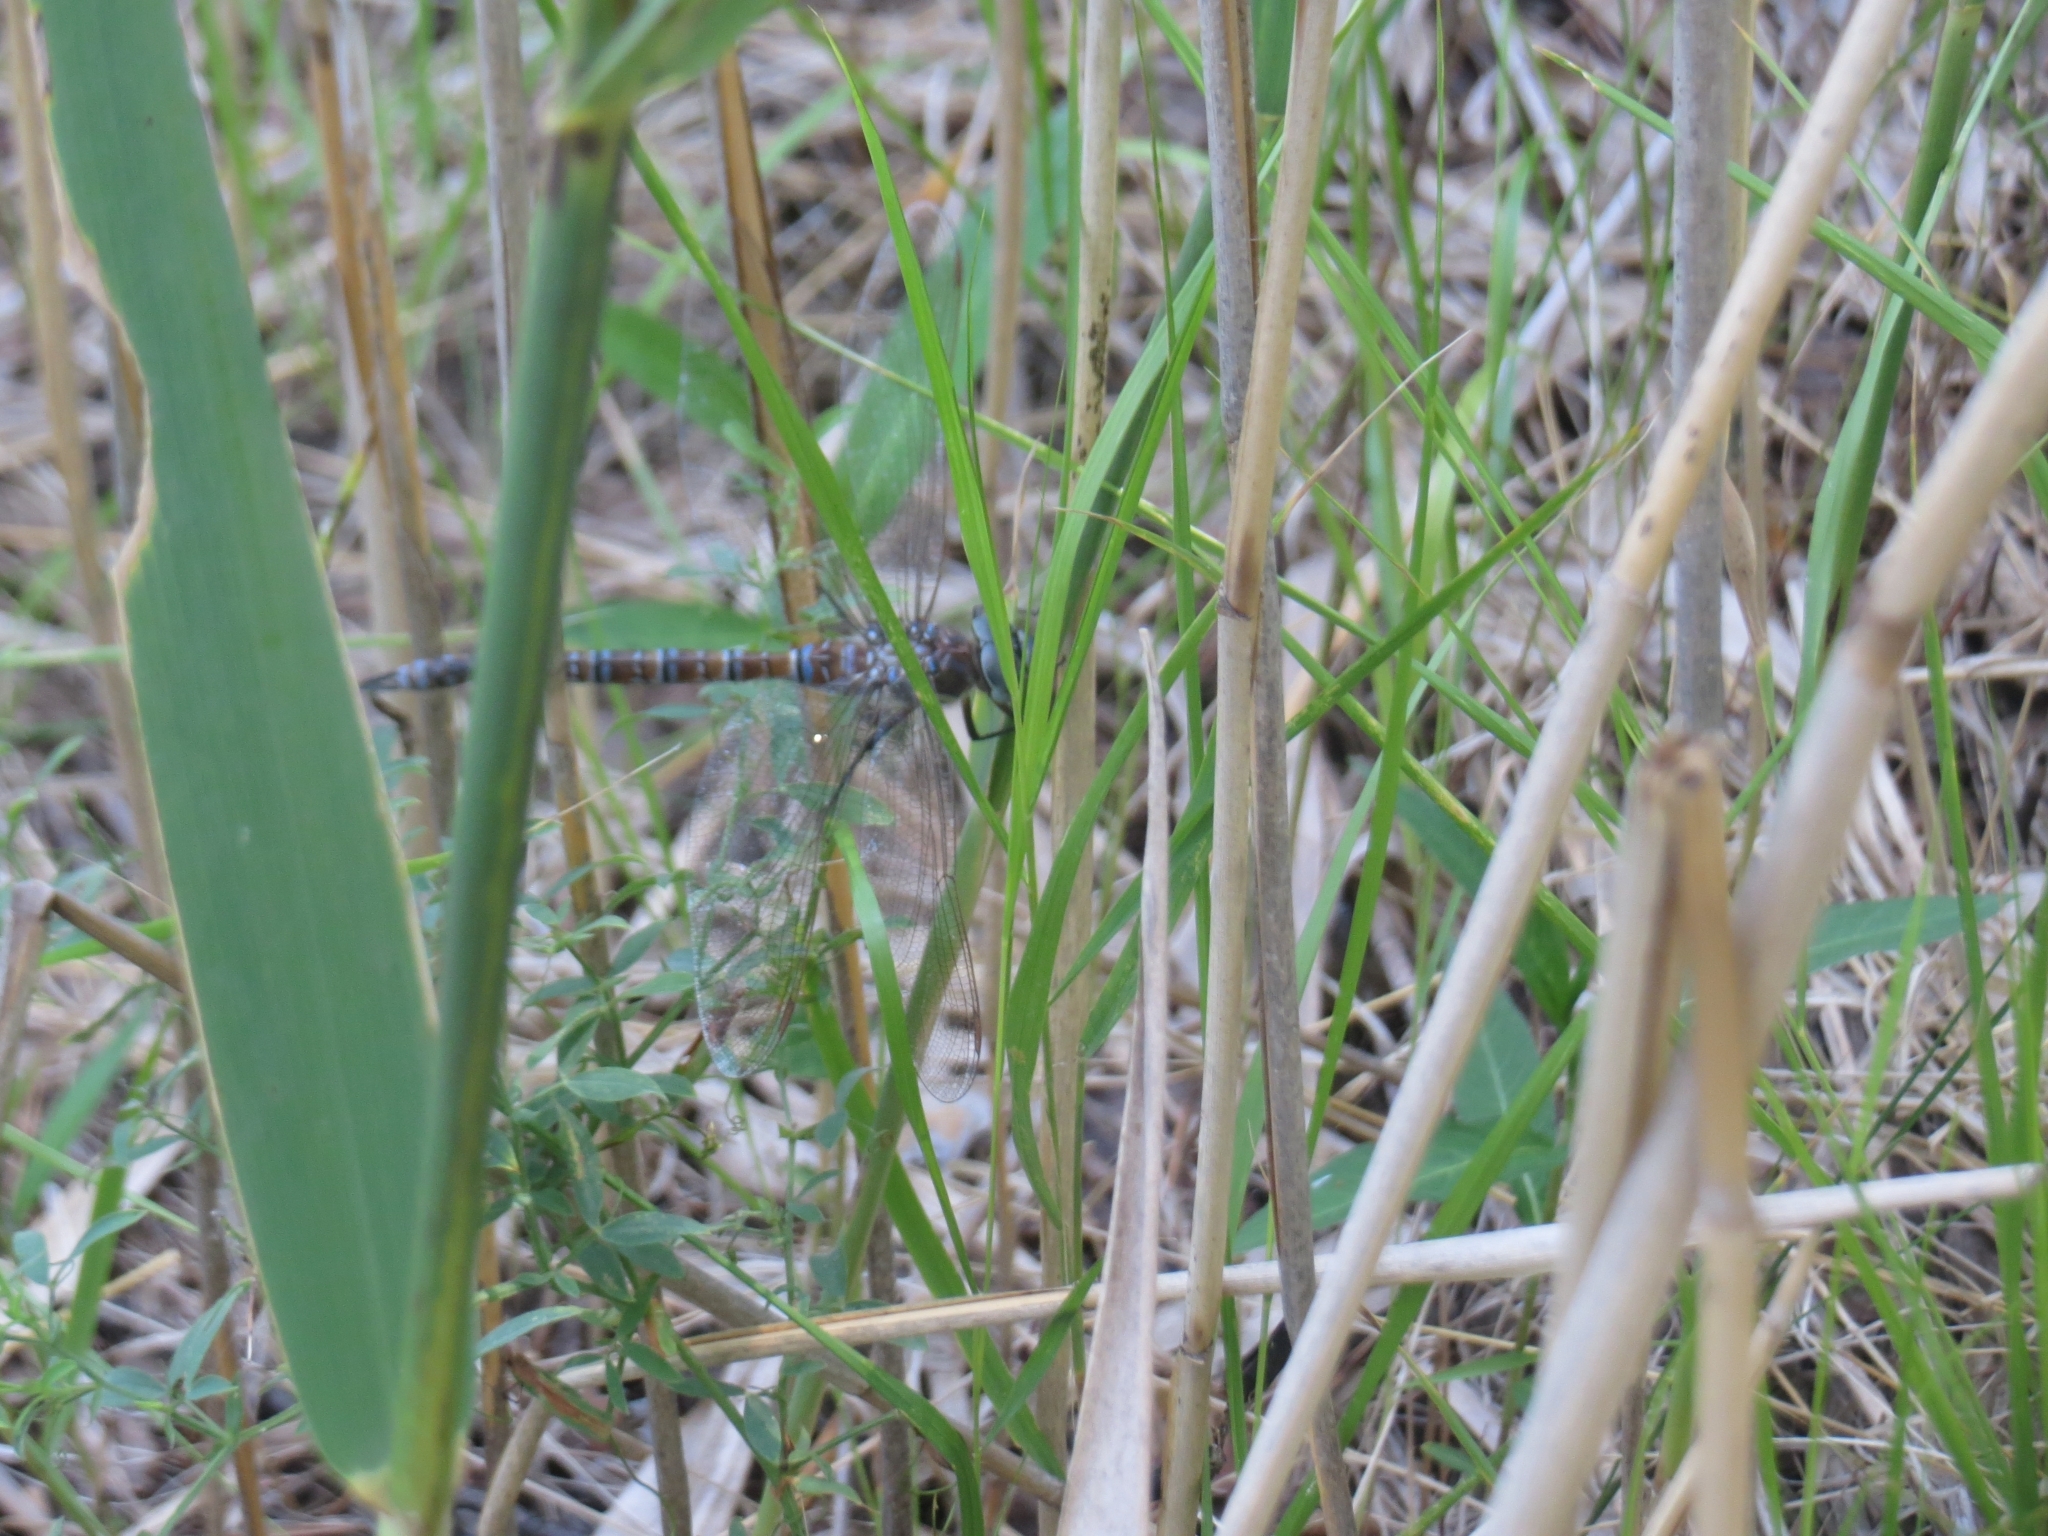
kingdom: Animalia
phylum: Arthropoda
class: Insecta
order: Odonata
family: Aeshnidae
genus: Aeshna
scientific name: Aeshna juncea
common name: Moorland hawker
